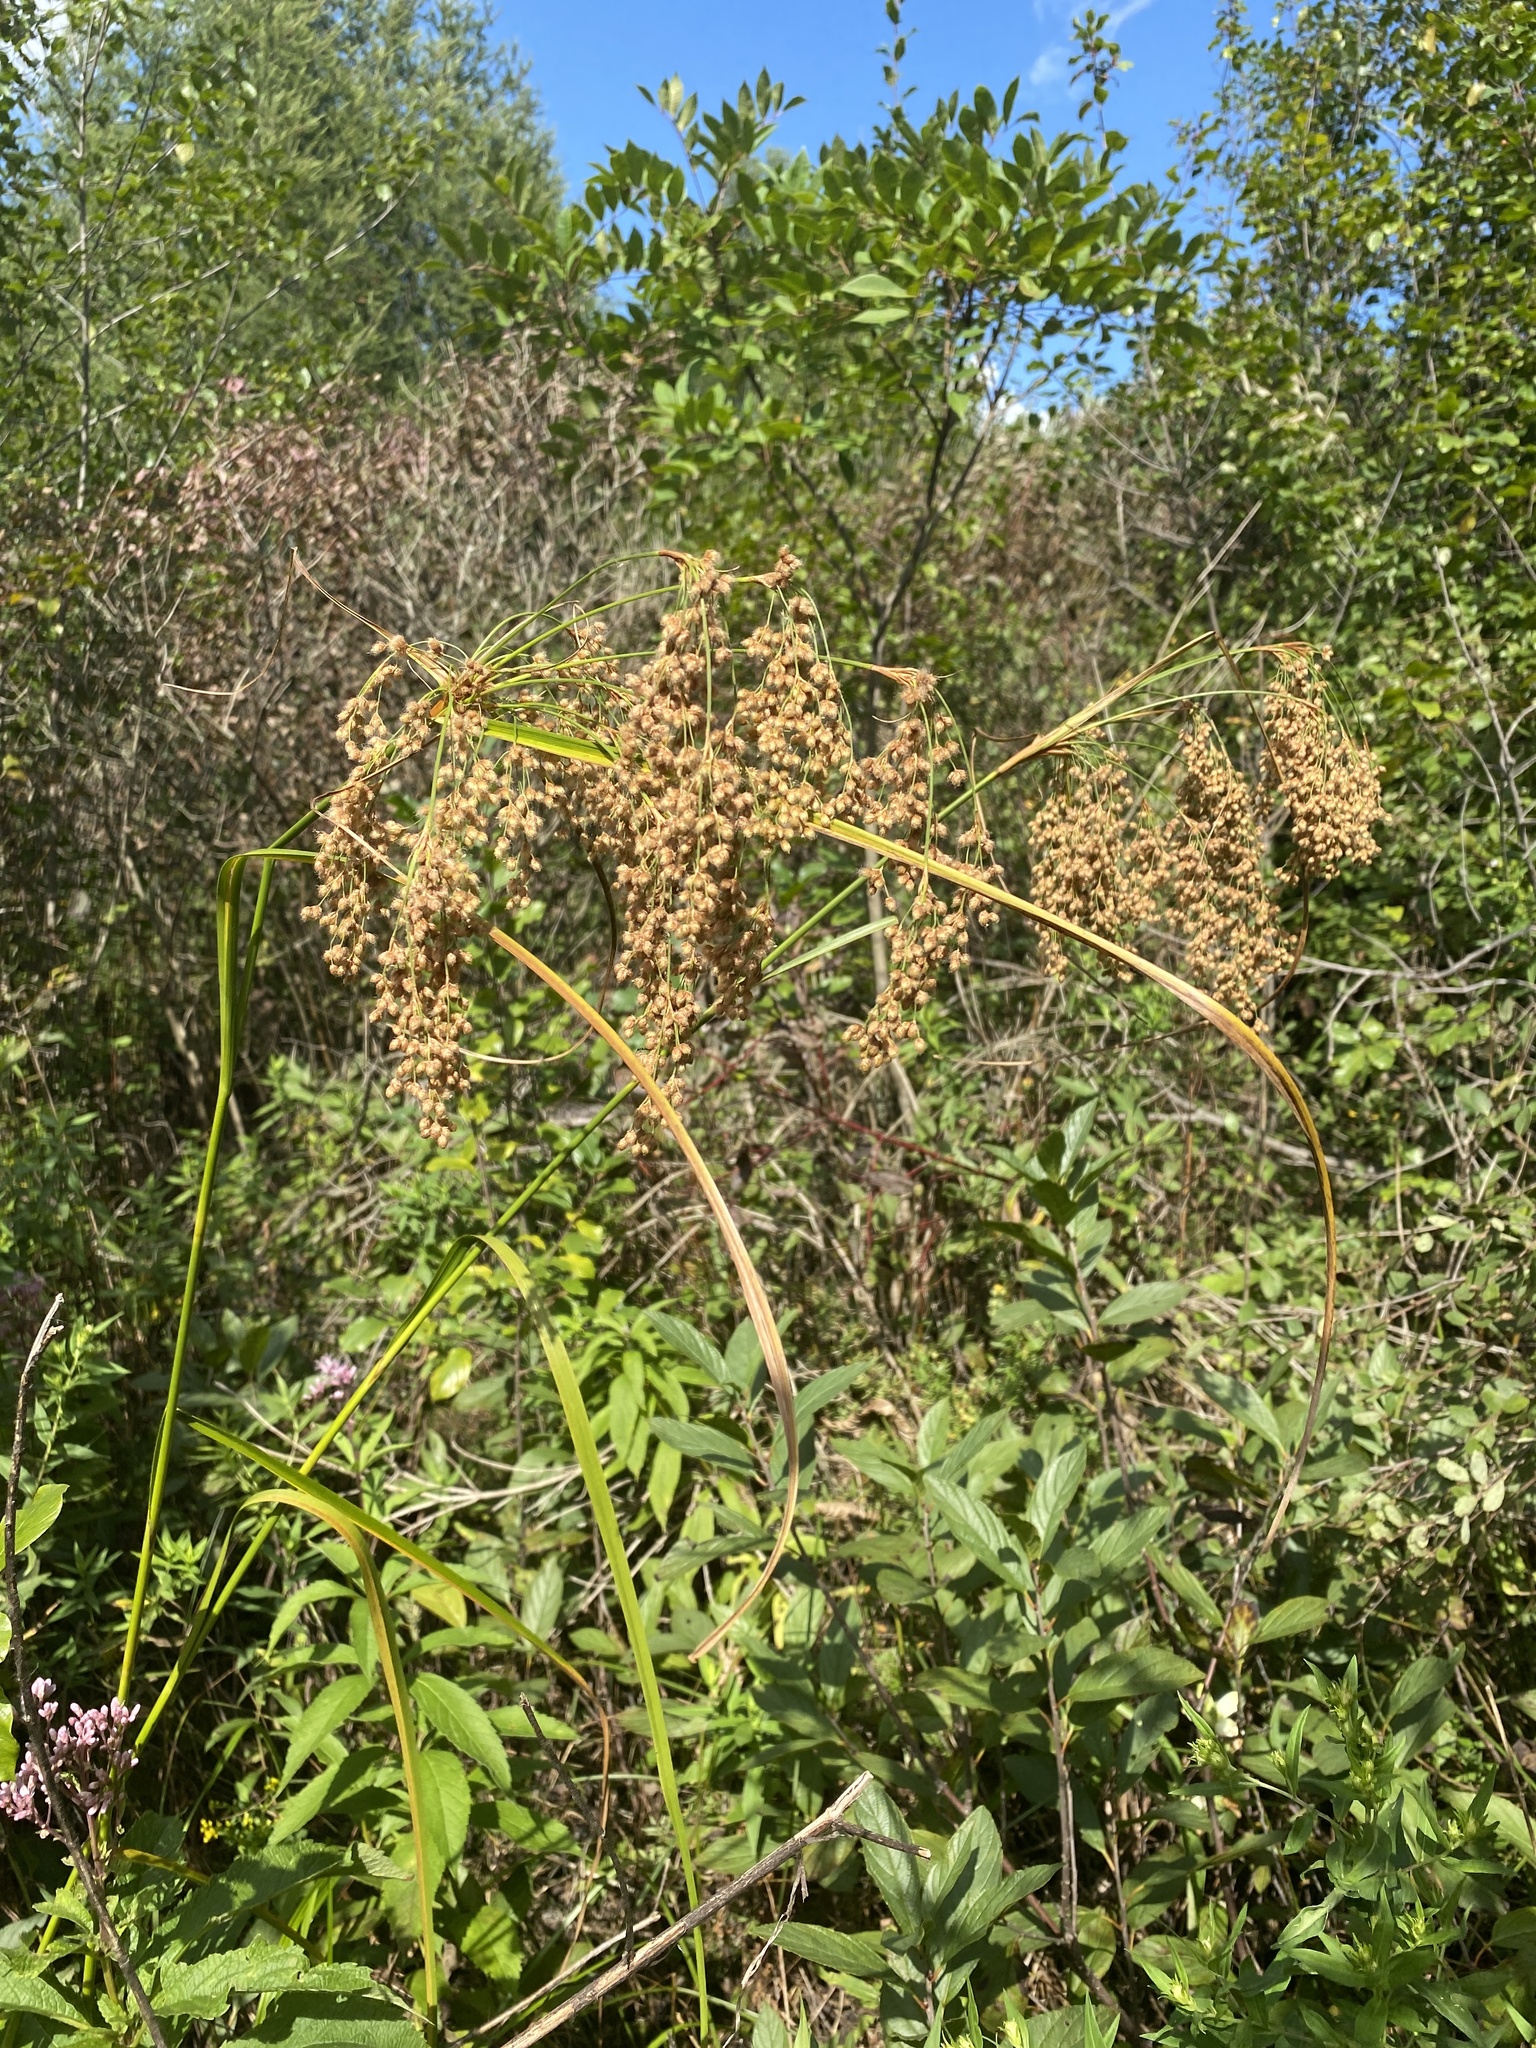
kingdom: Plantae
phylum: Tracheophyta
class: Liliopsida
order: Poales
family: Cyperaceae
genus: Scirpus
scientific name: Scirpus cyperinus
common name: Black-sheathed bulrush
